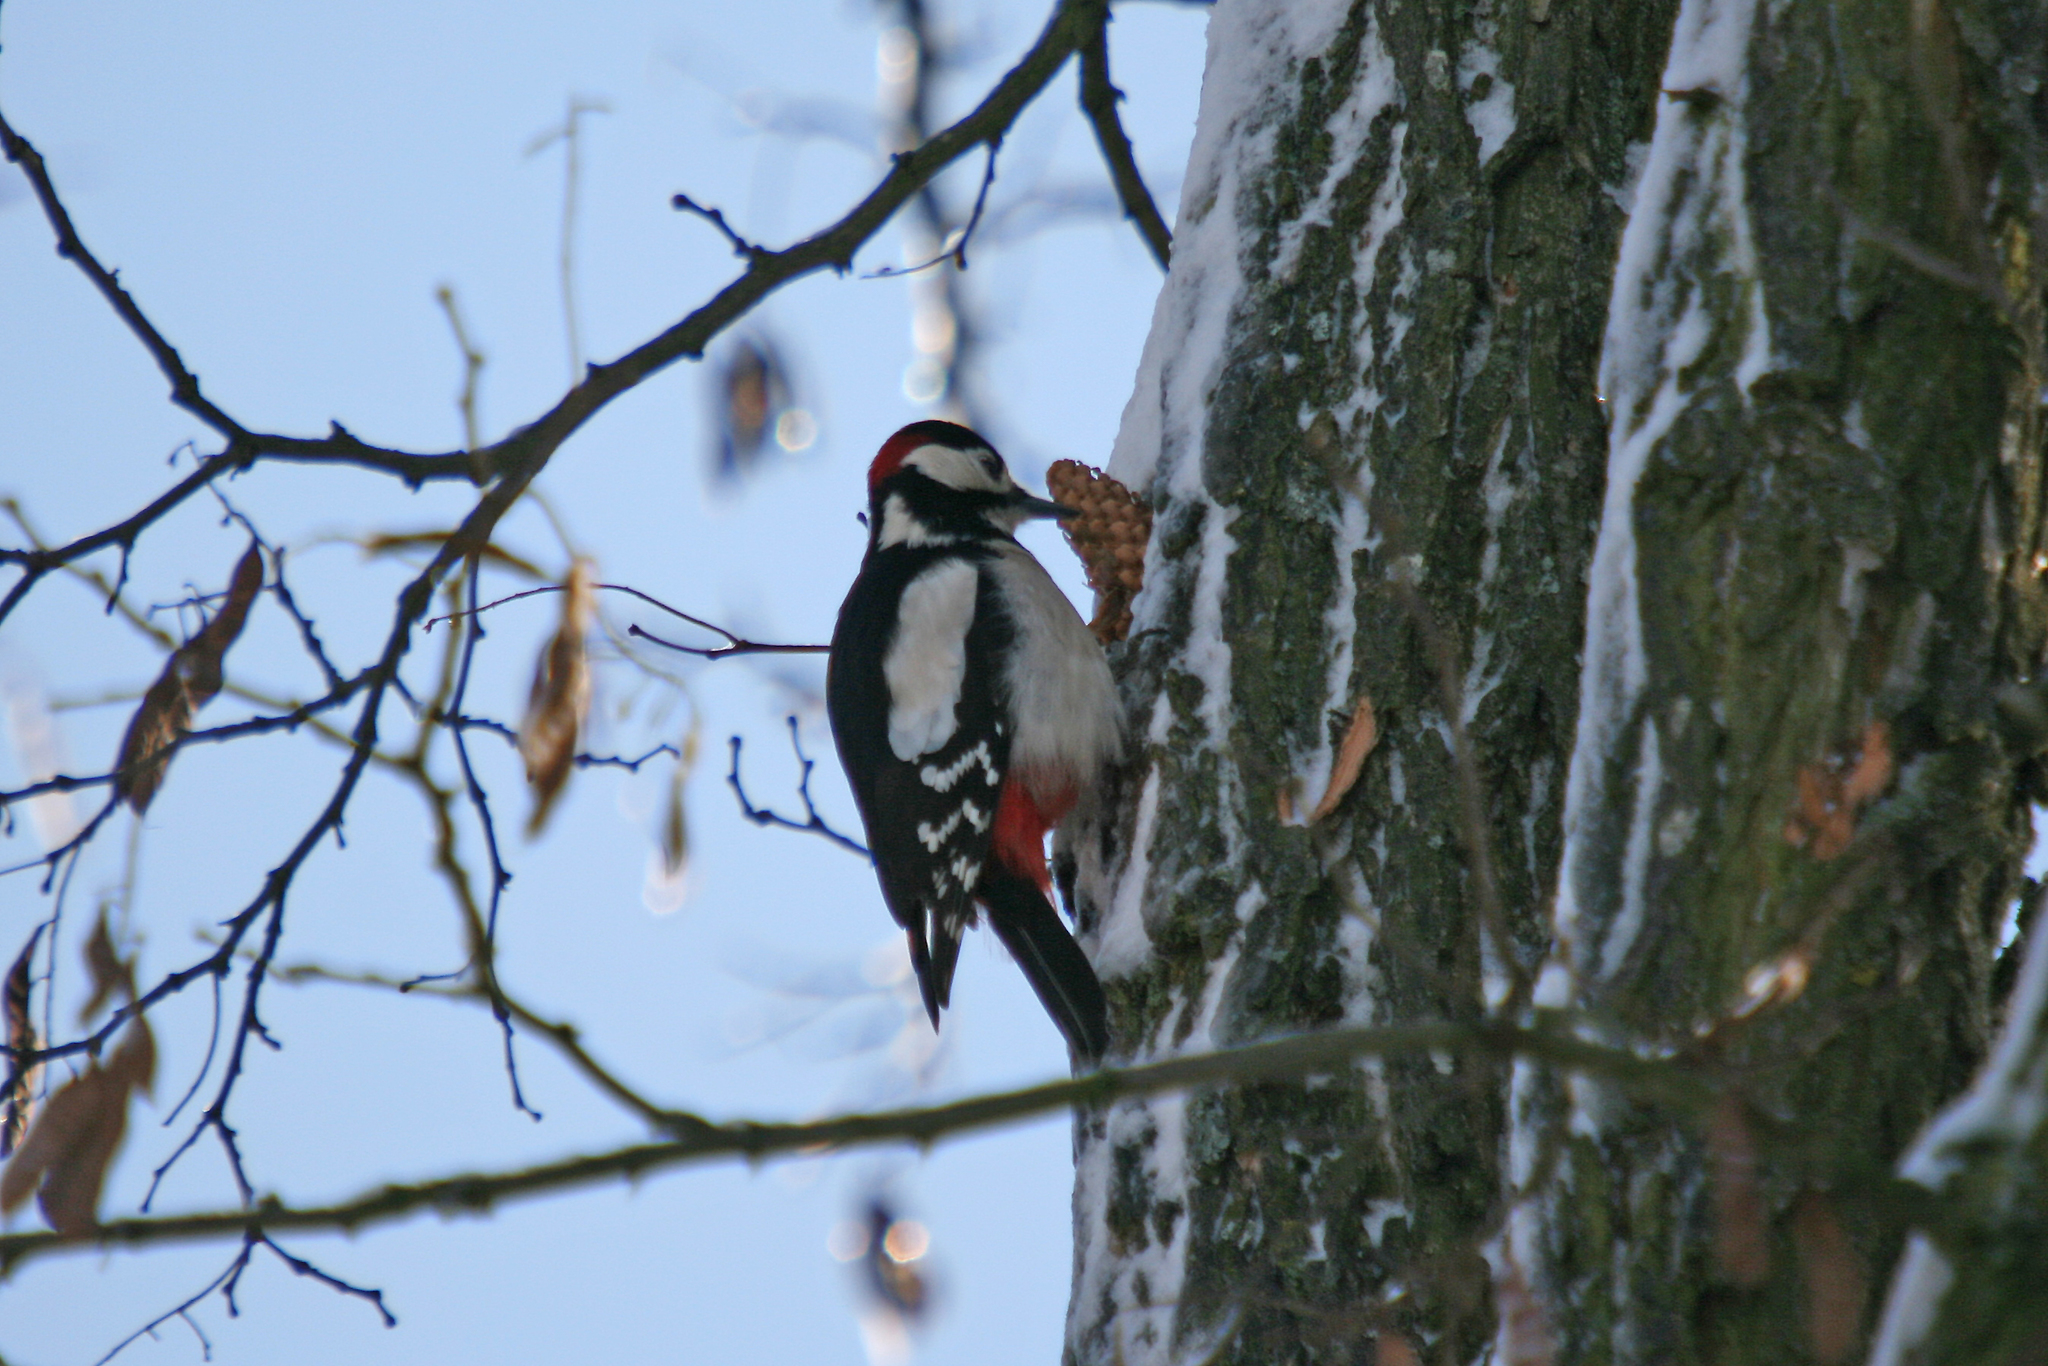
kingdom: Animalia
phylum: Chordata
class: Aves
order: Piciformes
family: Picidae
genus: Dendrocopos
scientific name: Dendrocopos major
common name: Great spotted woodpecker
